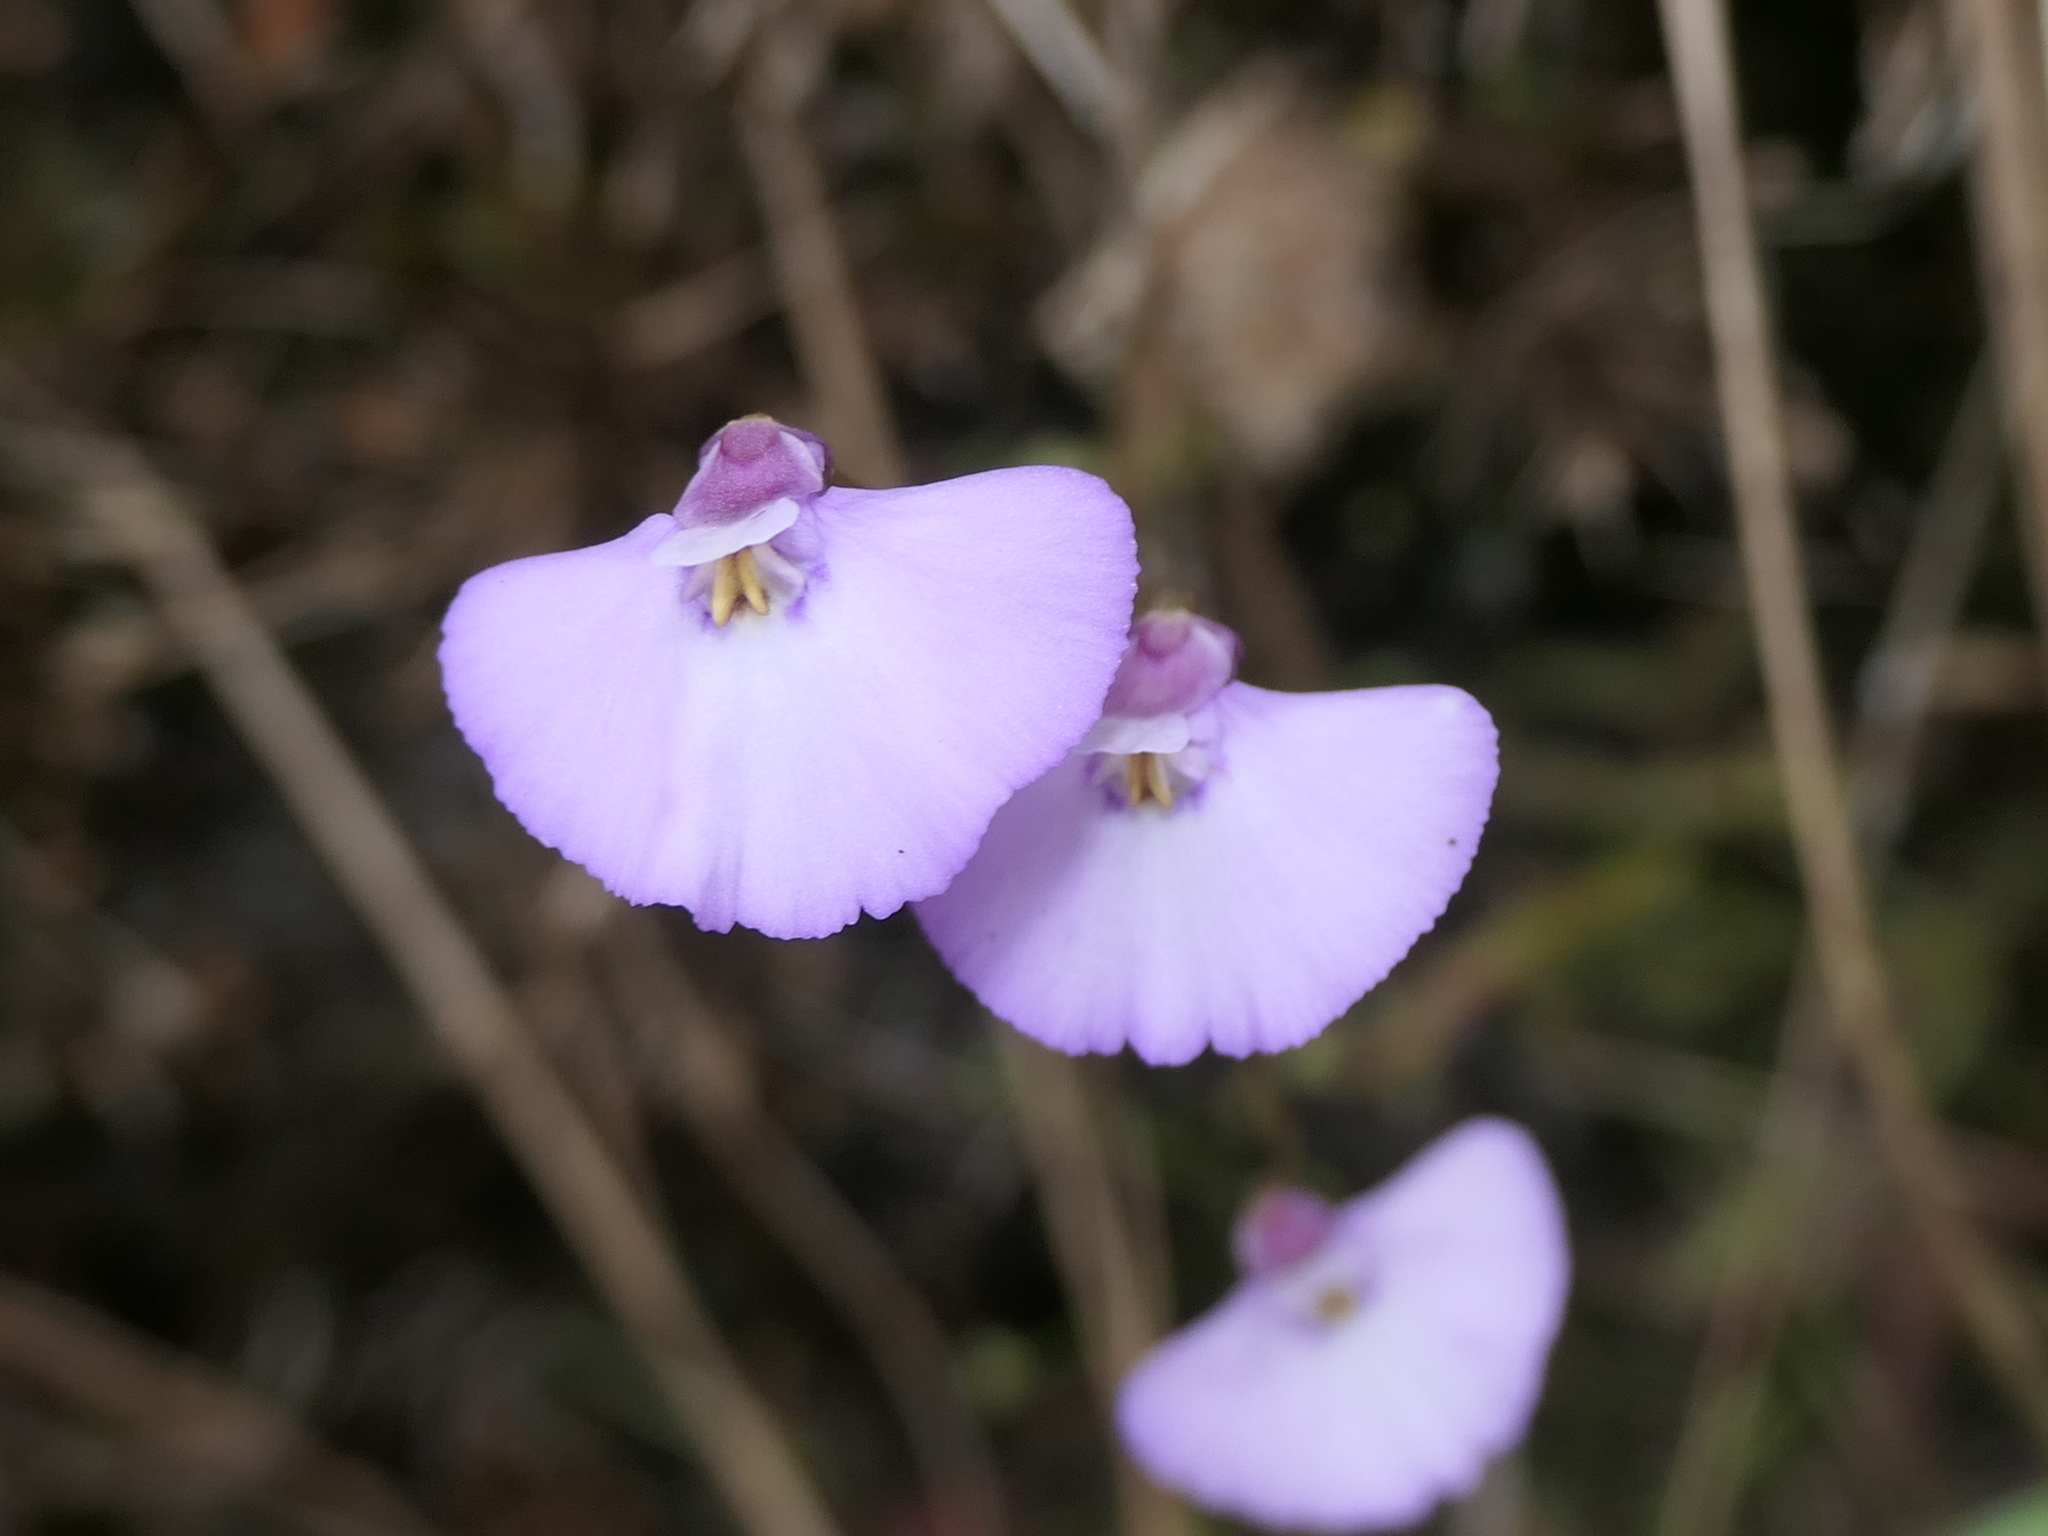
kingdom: Plantae
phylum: Tracheophyta
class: Magnoliopsida
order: Lamiales
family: Lentibulariaceae
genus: Utricularia
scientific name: Utricularia uniflora
